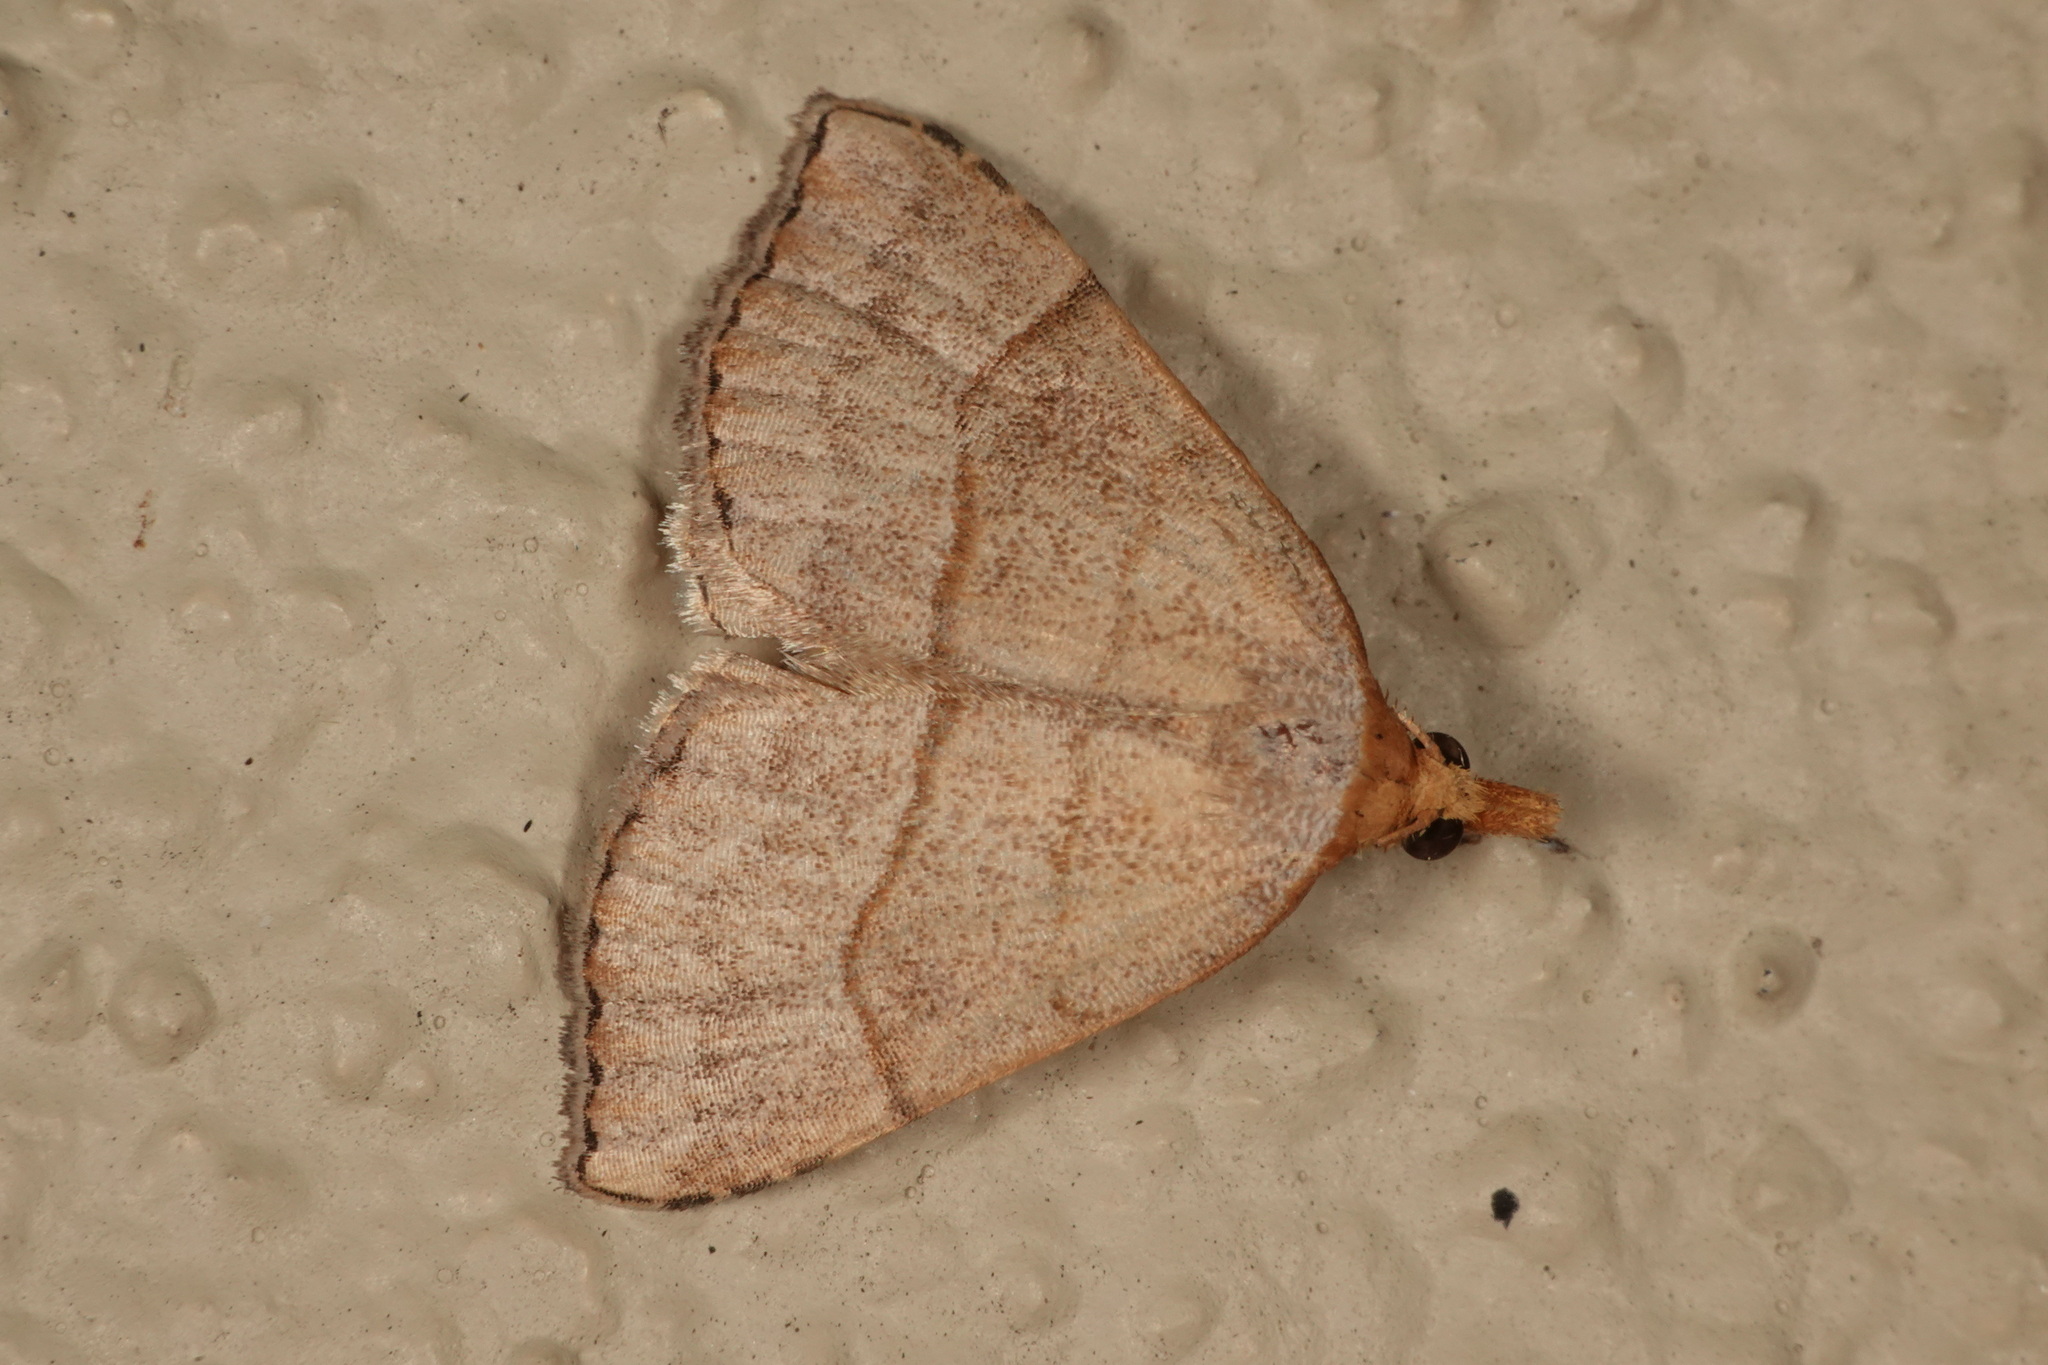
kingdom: Animalia
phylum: Arthropoda
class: Insecta
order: Lepidoptera
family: Erebidae
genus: Meranda
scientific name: Meranda susialis
